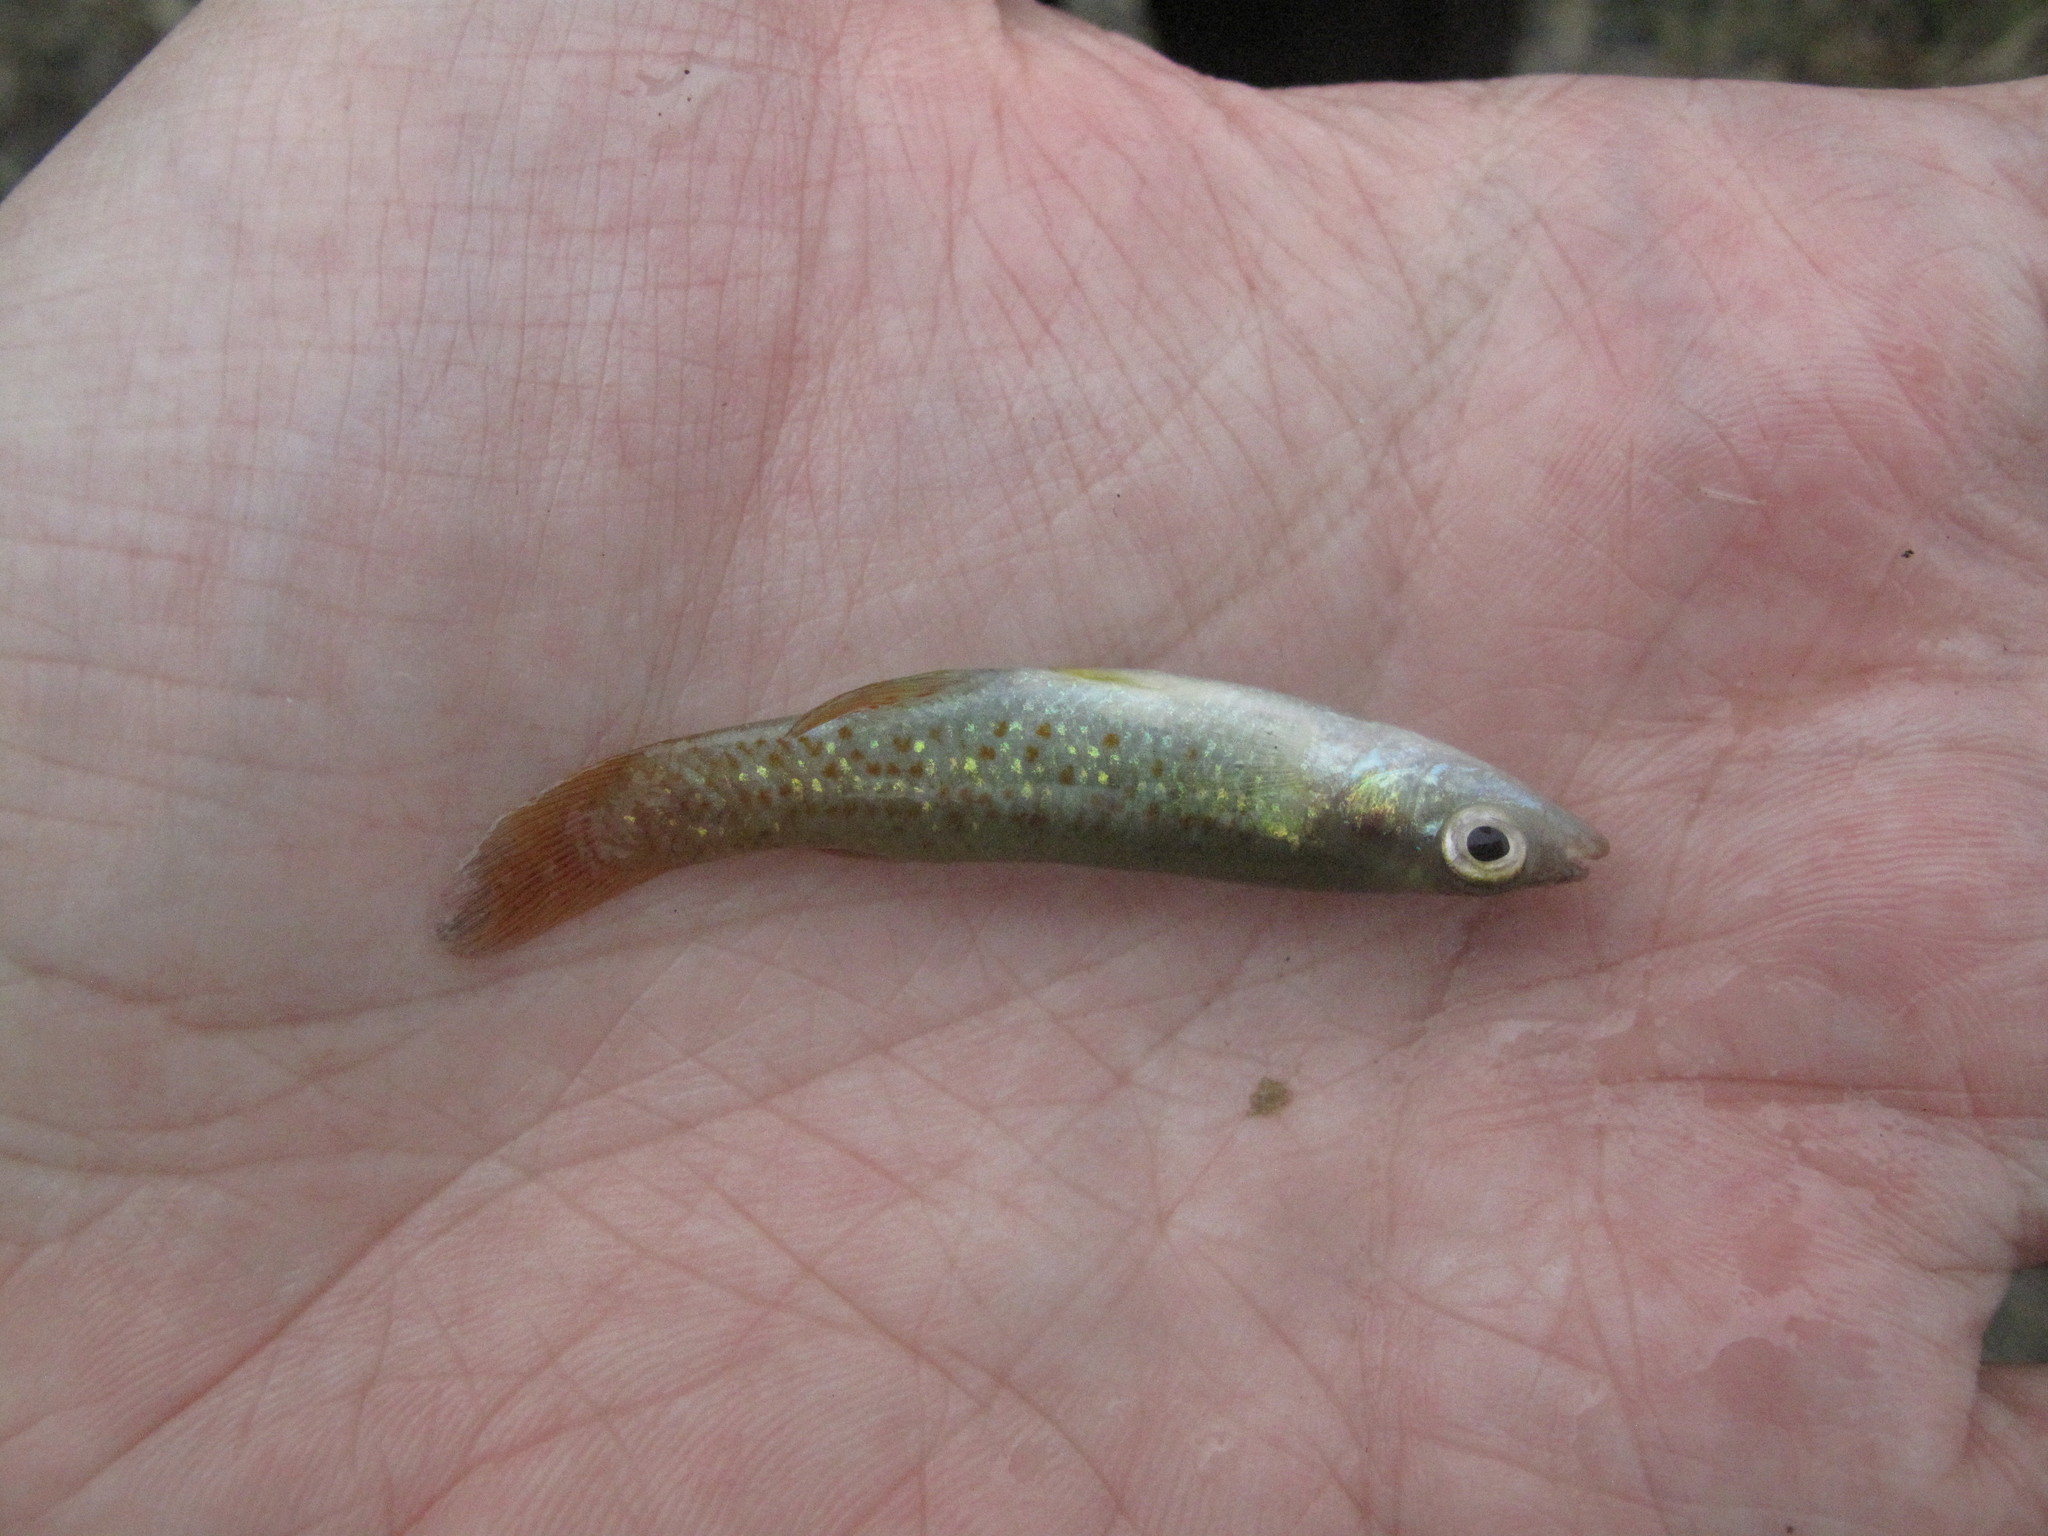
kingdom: Animalia
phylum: Chordata
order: Cyprinodontiformes
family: Fundulidae
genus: Fundulus
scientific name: Fundulus chrysotus
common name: Golden topminnow
